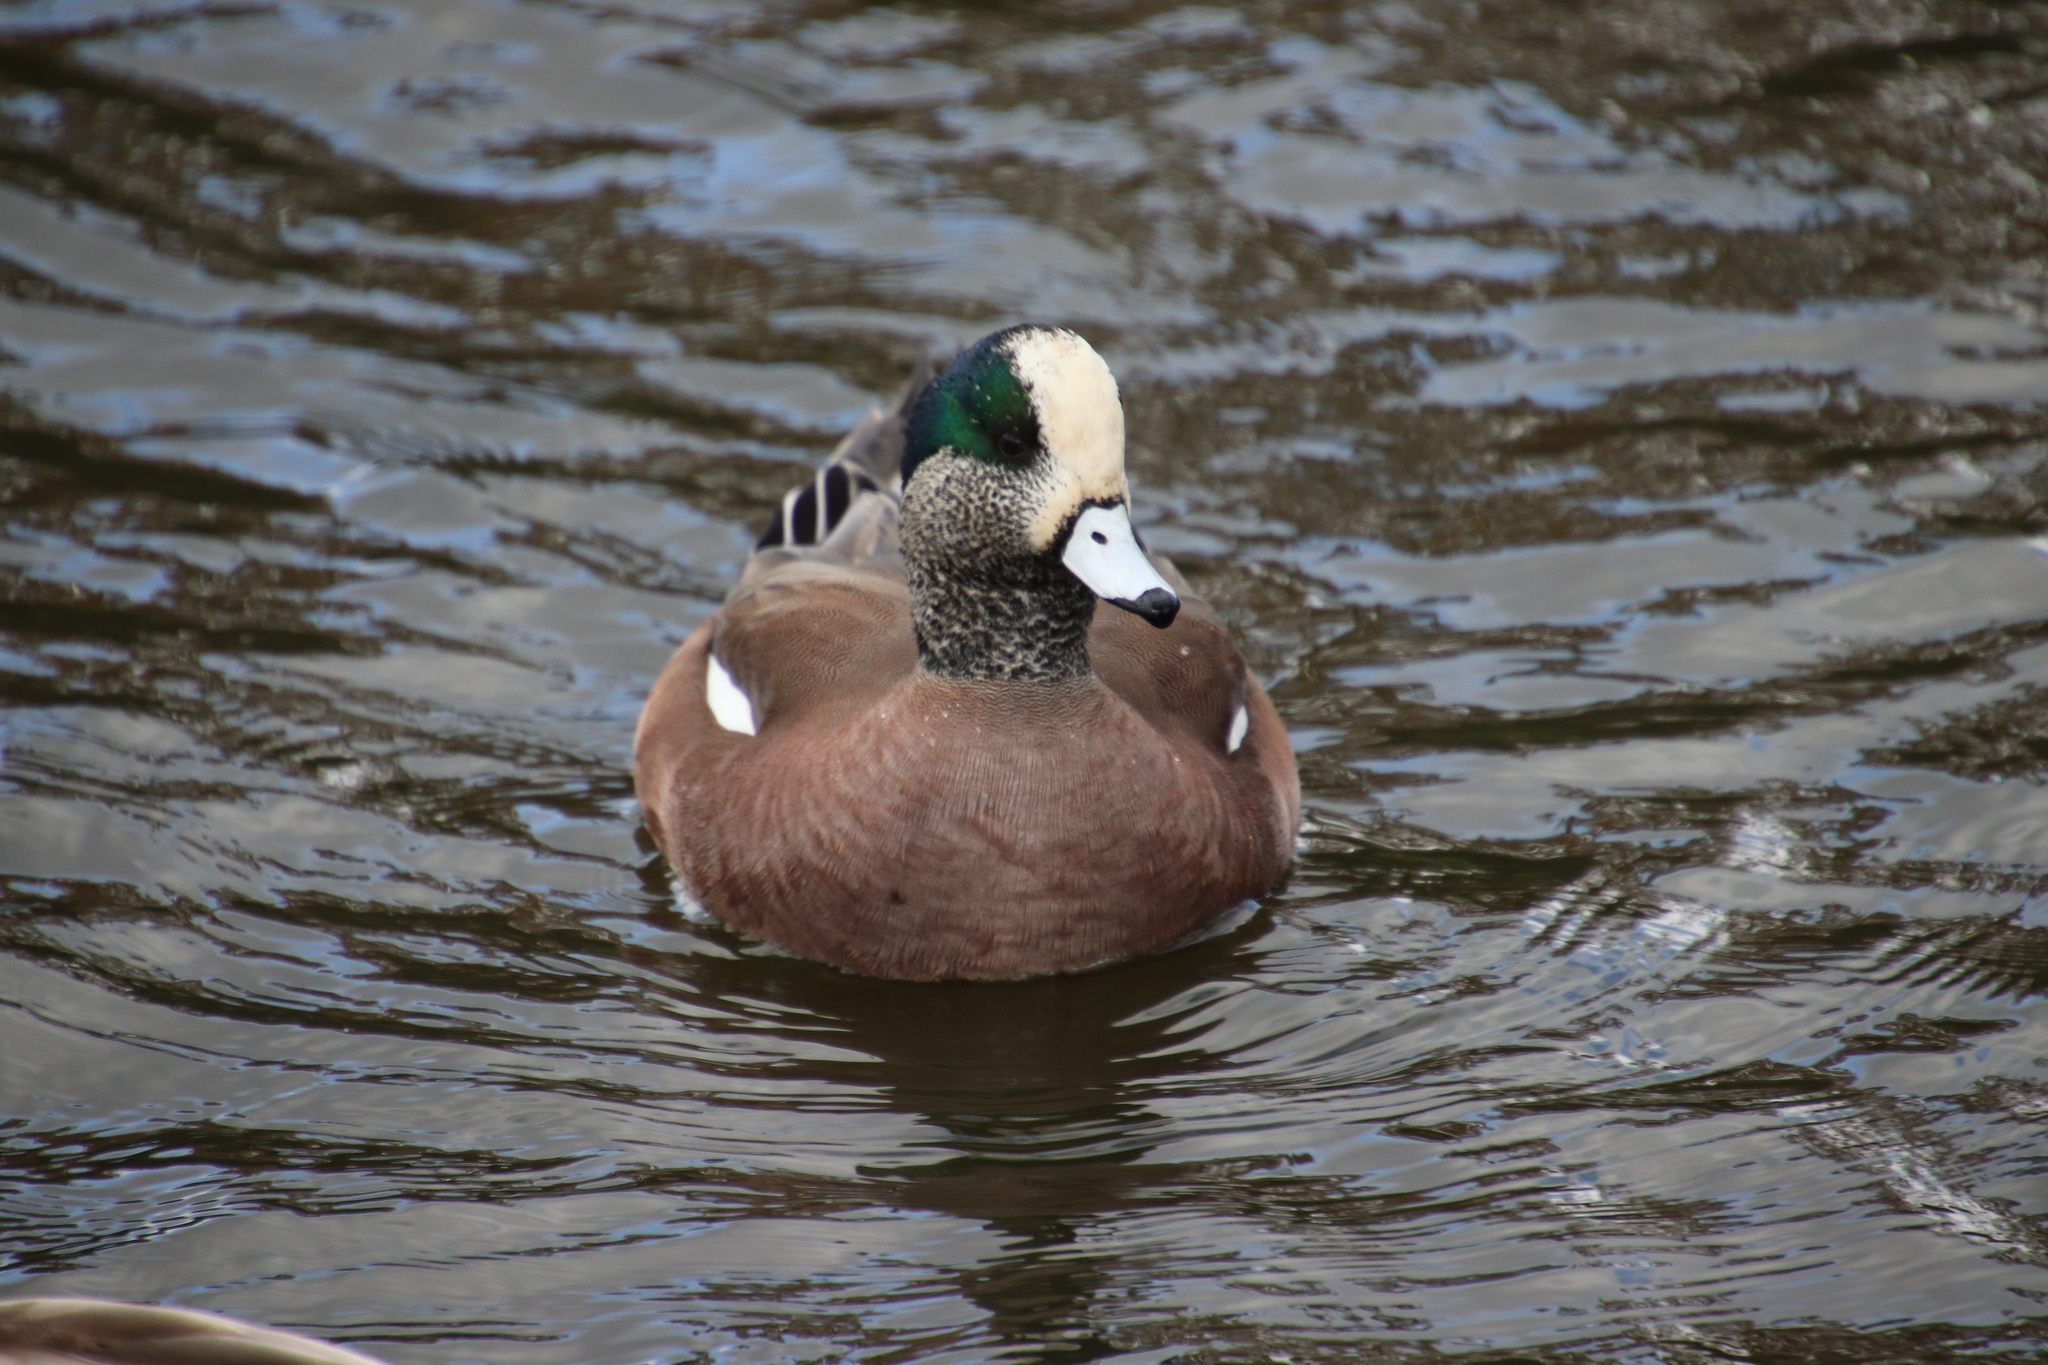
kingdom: Animalia
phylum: Chordata
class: Aves
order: Anseriformes
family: Anatidae
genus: Mareca
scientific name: Mareca americana
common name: American wigeon
